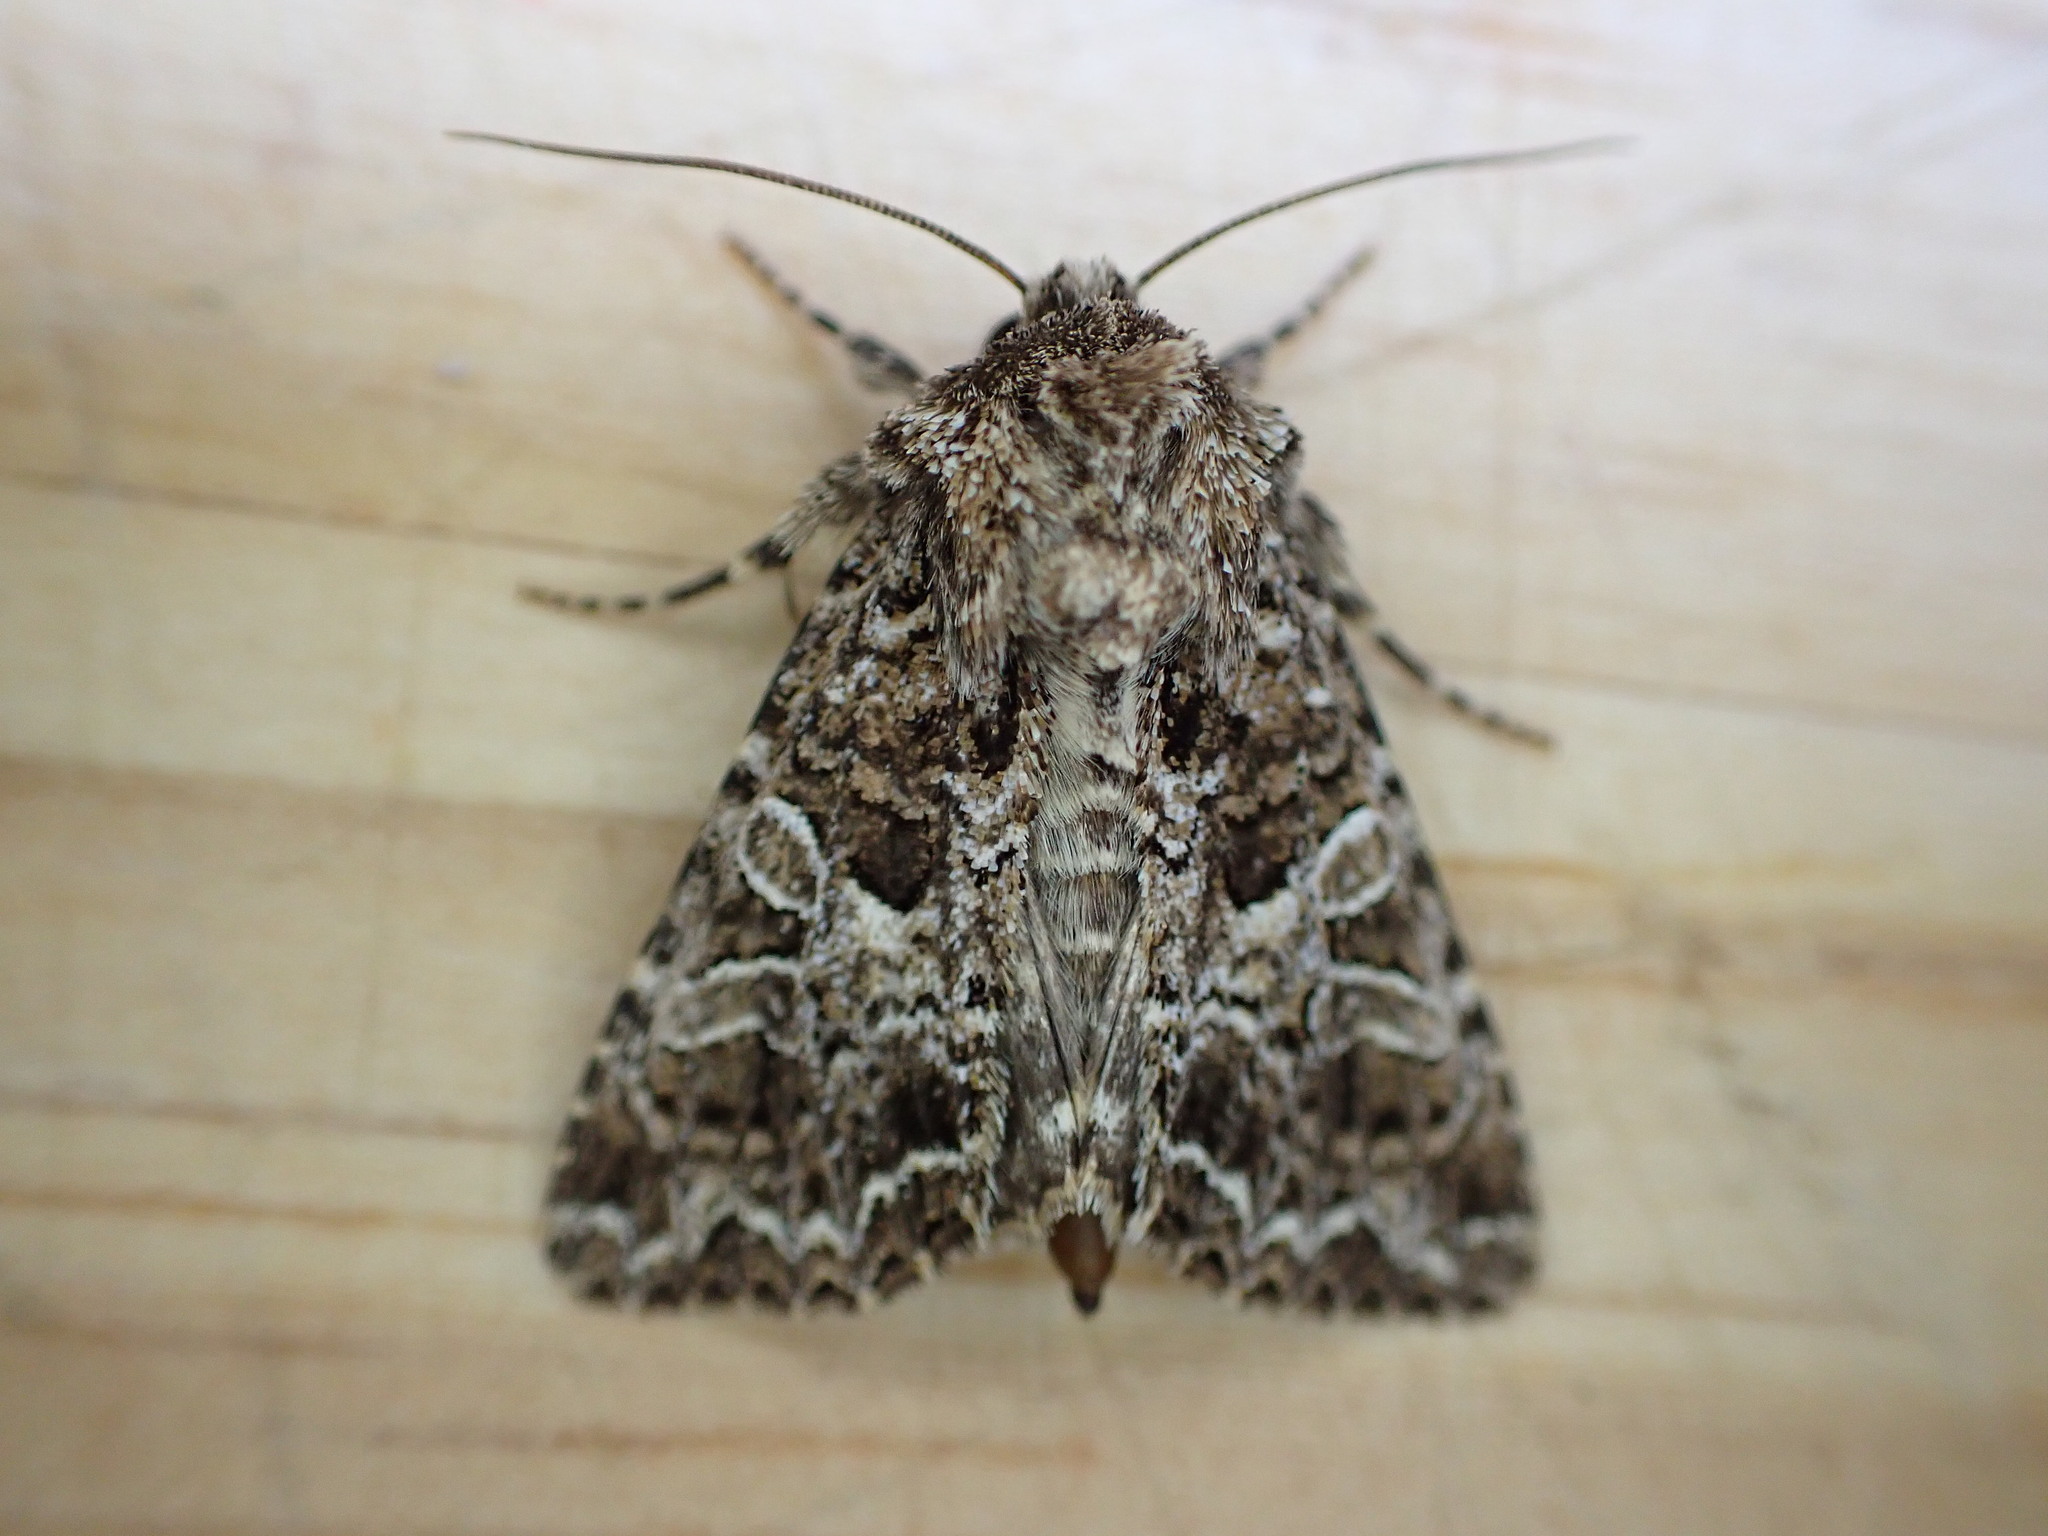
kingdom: Animalia
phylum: Arthropoda
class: Insecta
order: Lepidoptera
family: Noctuidae
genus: Hadena
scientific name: Hadena bicruris
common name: Lychnis
